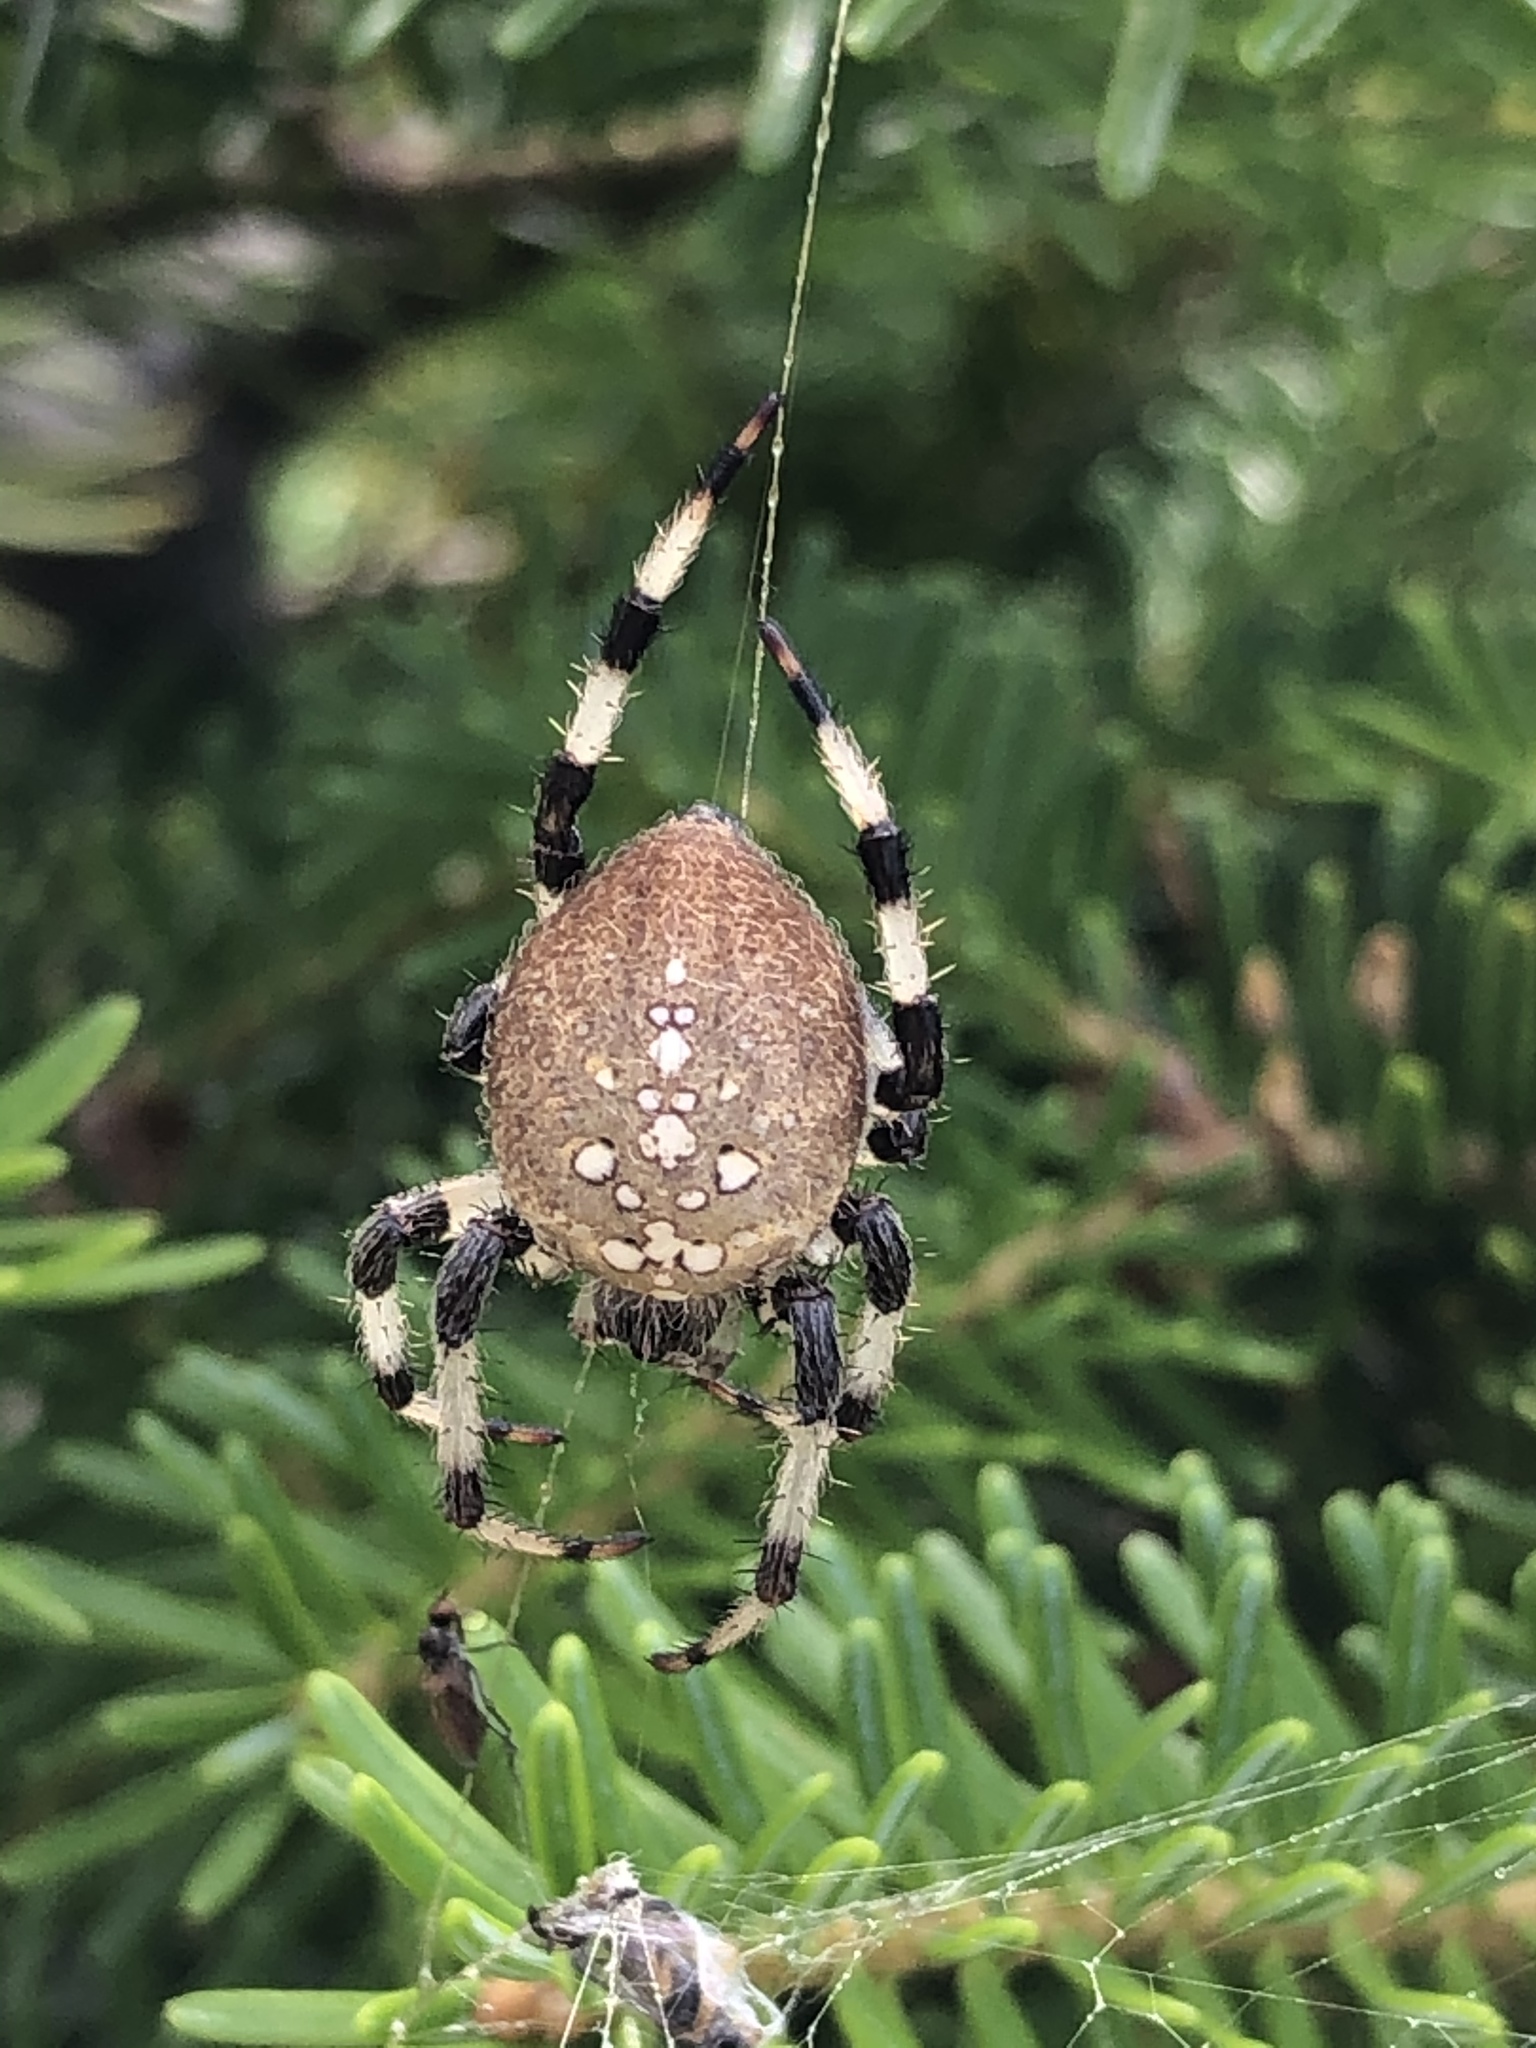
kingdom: Animalia
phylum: Arthropoda
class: Arachnida
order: Araneae
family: Araneidae
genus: Araneus
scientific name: Araneus trifolium
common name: Shamrock orbweaver
